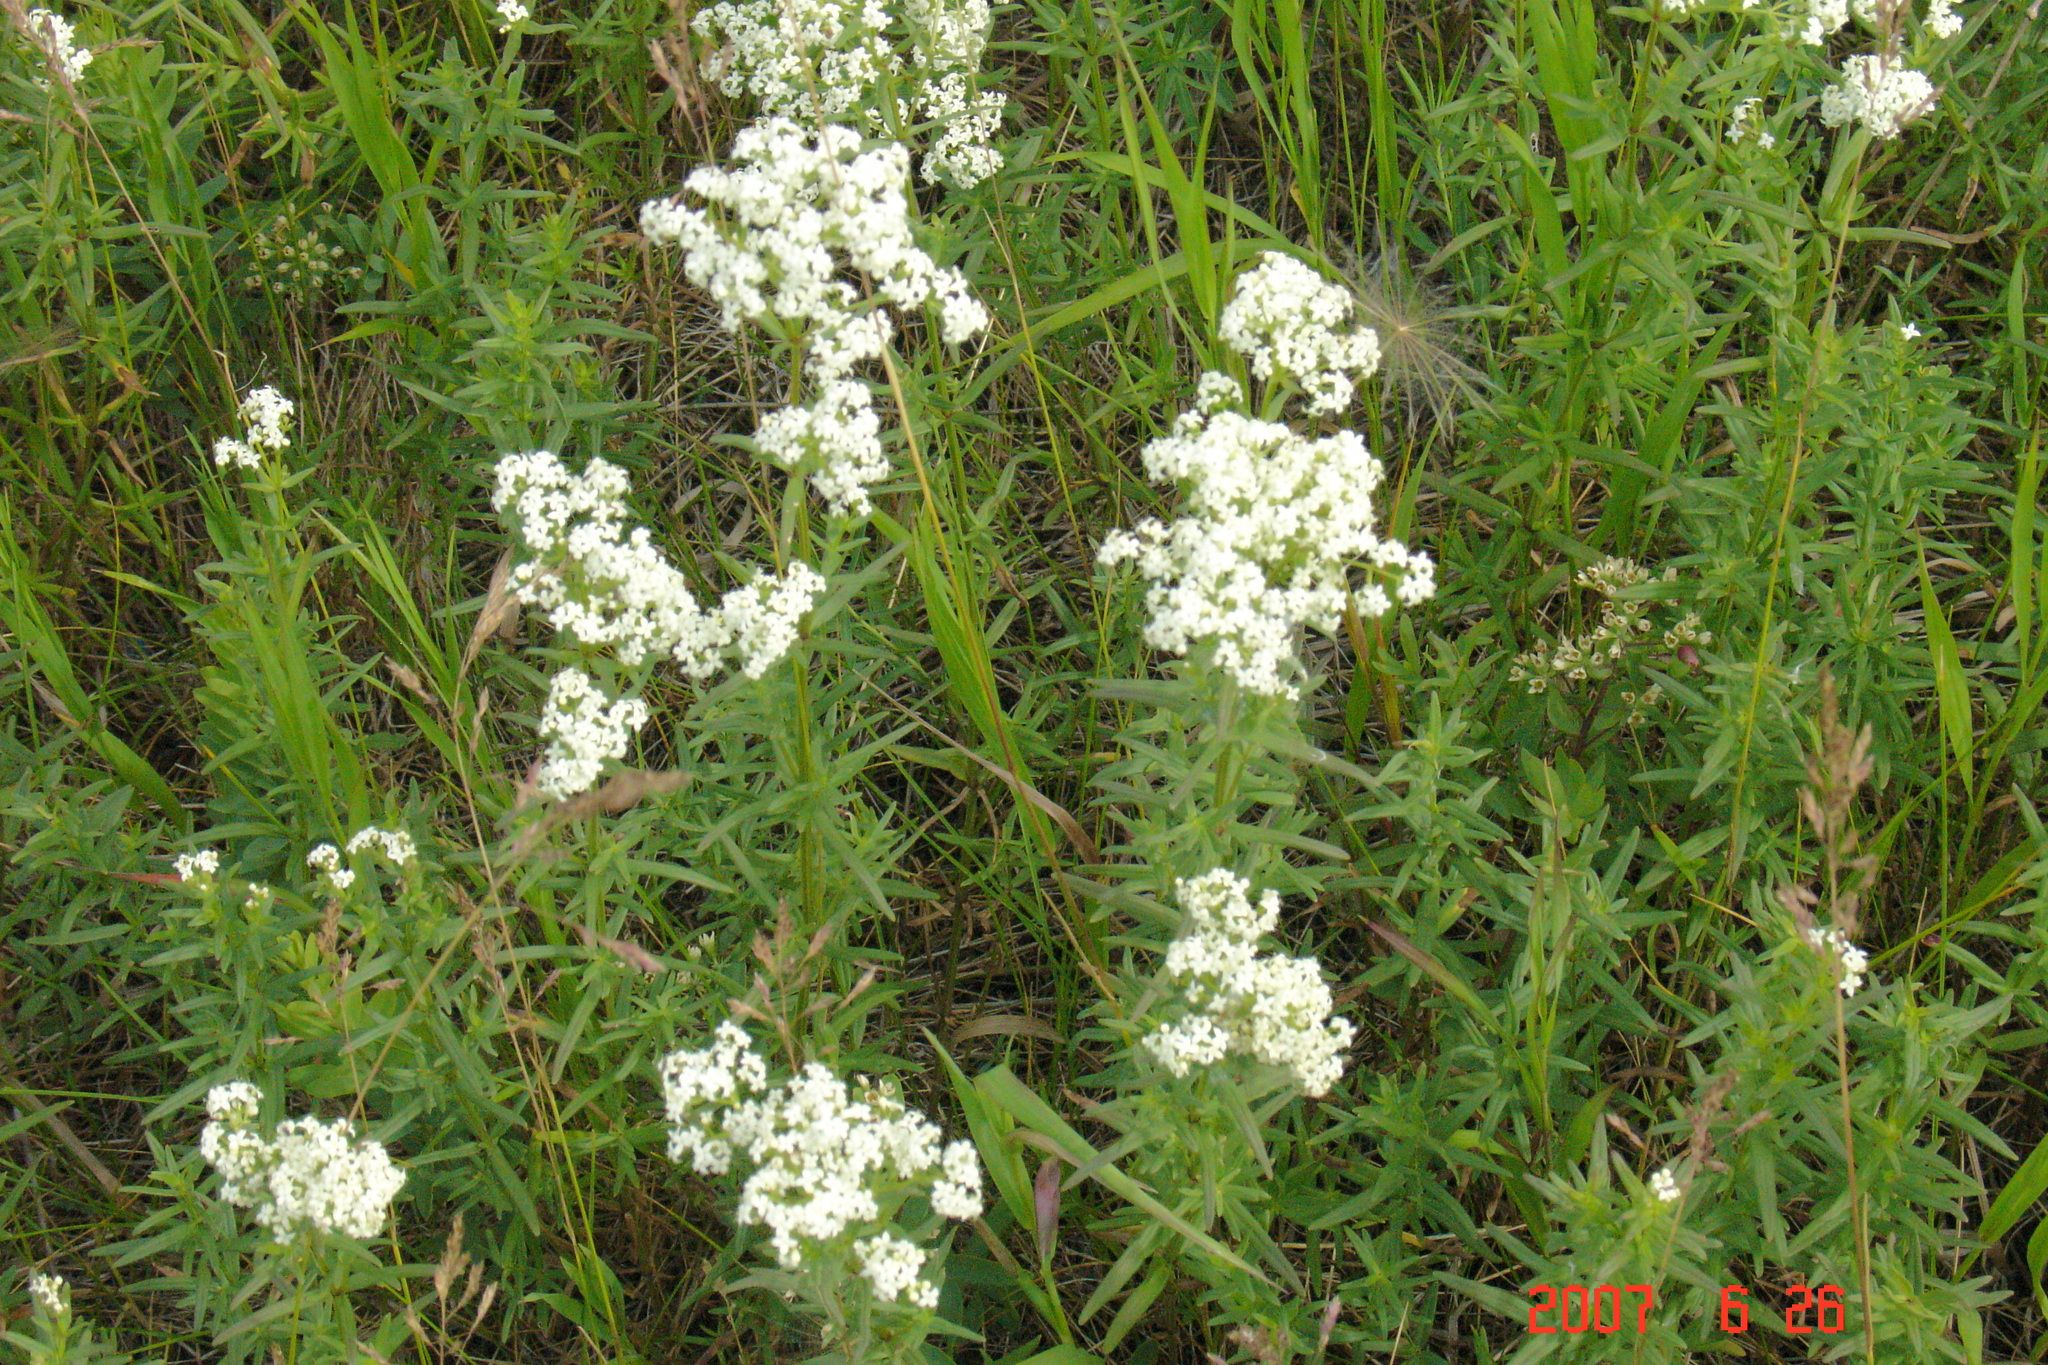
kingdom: Plantae
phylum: Tracheophyta
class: Magnoliopsida
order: Gentianales
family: Rubiaceae
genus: Galium
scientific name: Galium boreale
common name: Northern bedstraw
